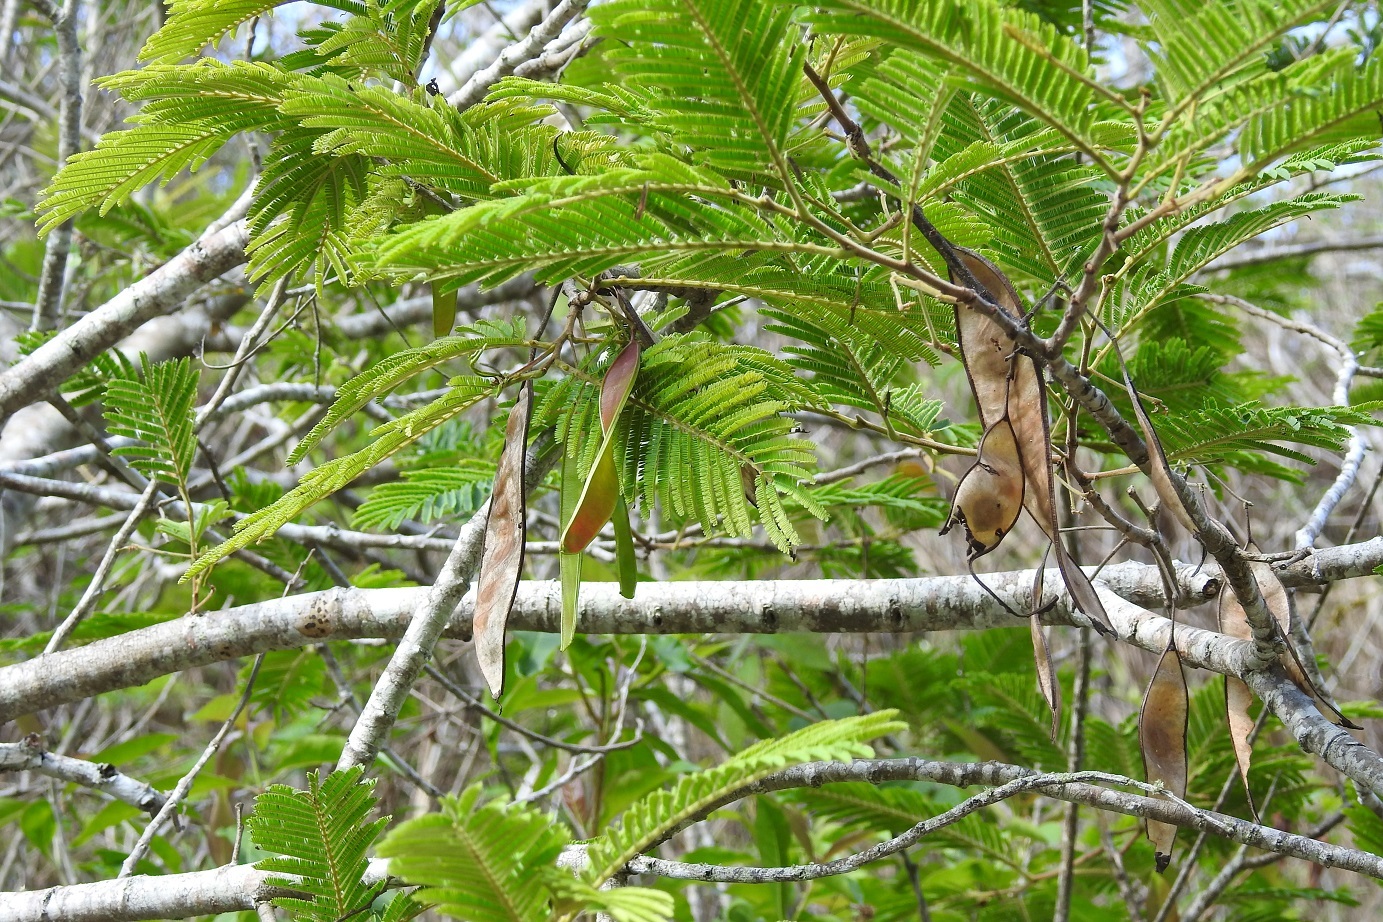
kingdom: Plantae
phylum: Tracheophyta
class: Magnoliopsida
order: Fabales
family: Fabaceae
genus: Lysiloma
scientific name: Lysiloma auritum
